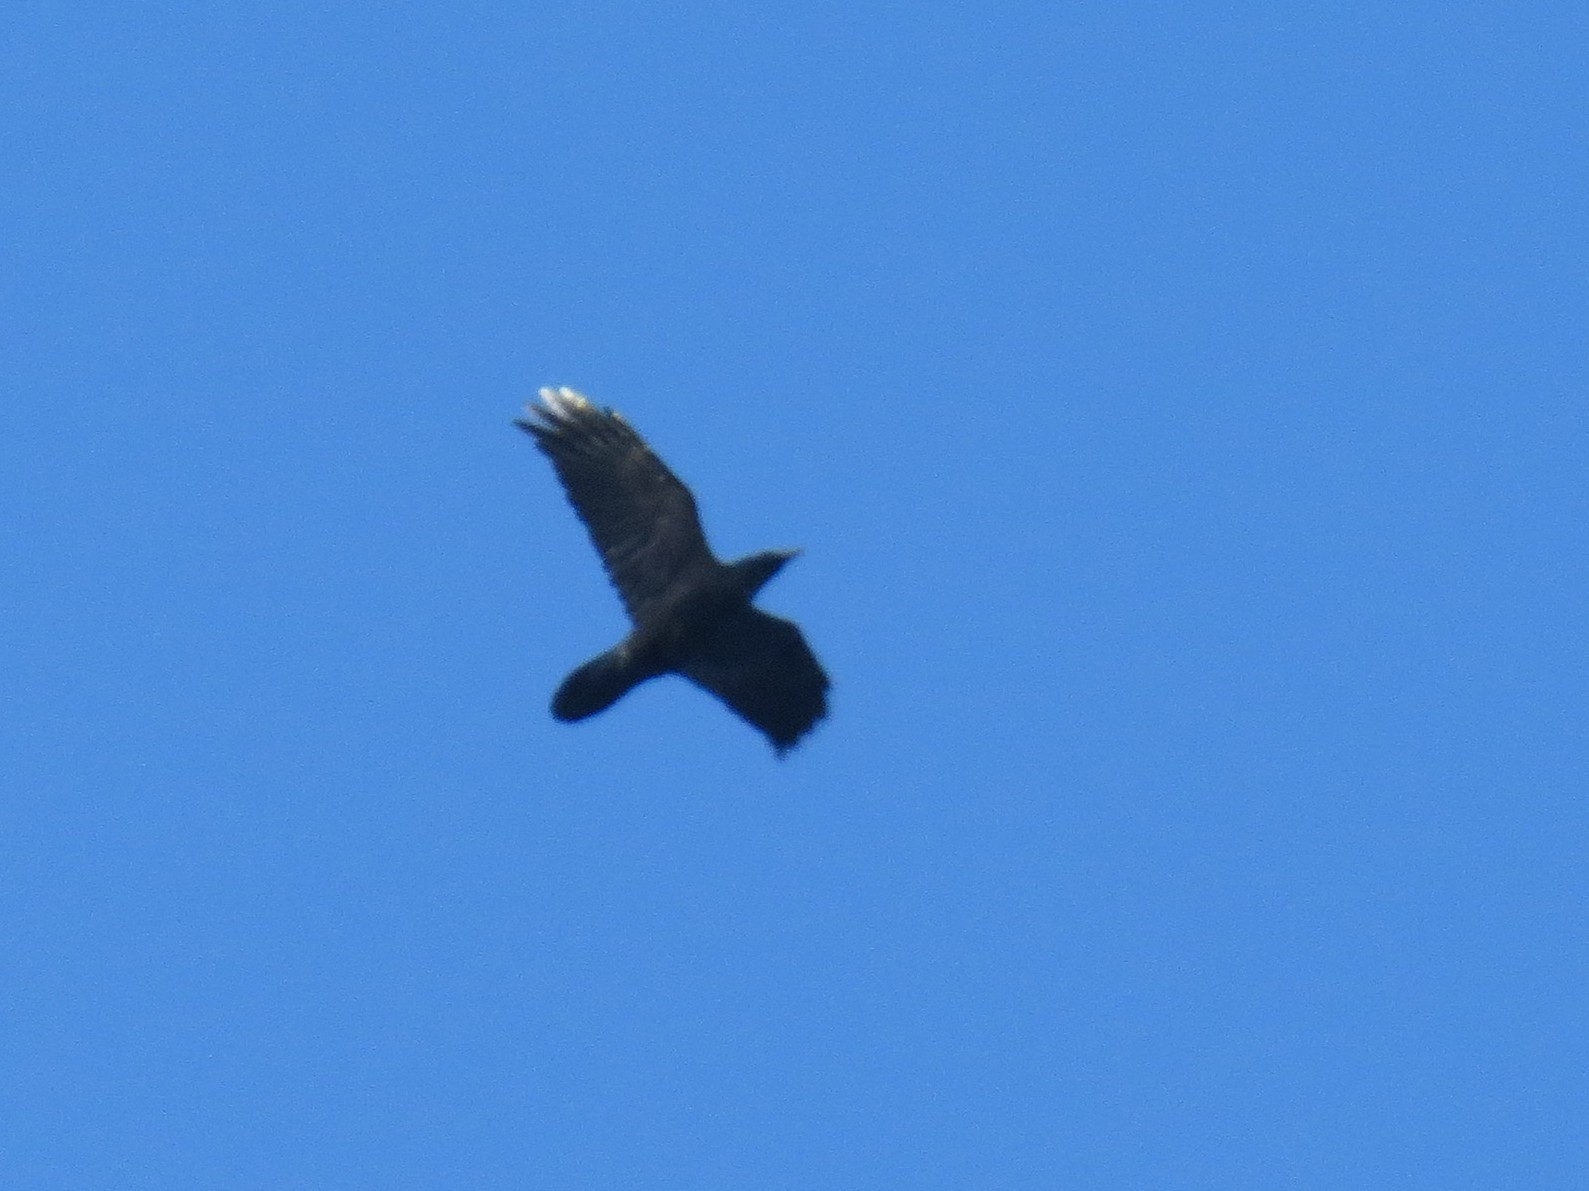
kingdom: Animalia
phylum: Chordata
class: Aves
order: Passeriformes
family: Corvidae
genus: Corvus
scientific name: Corvus corax
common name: Common raven
